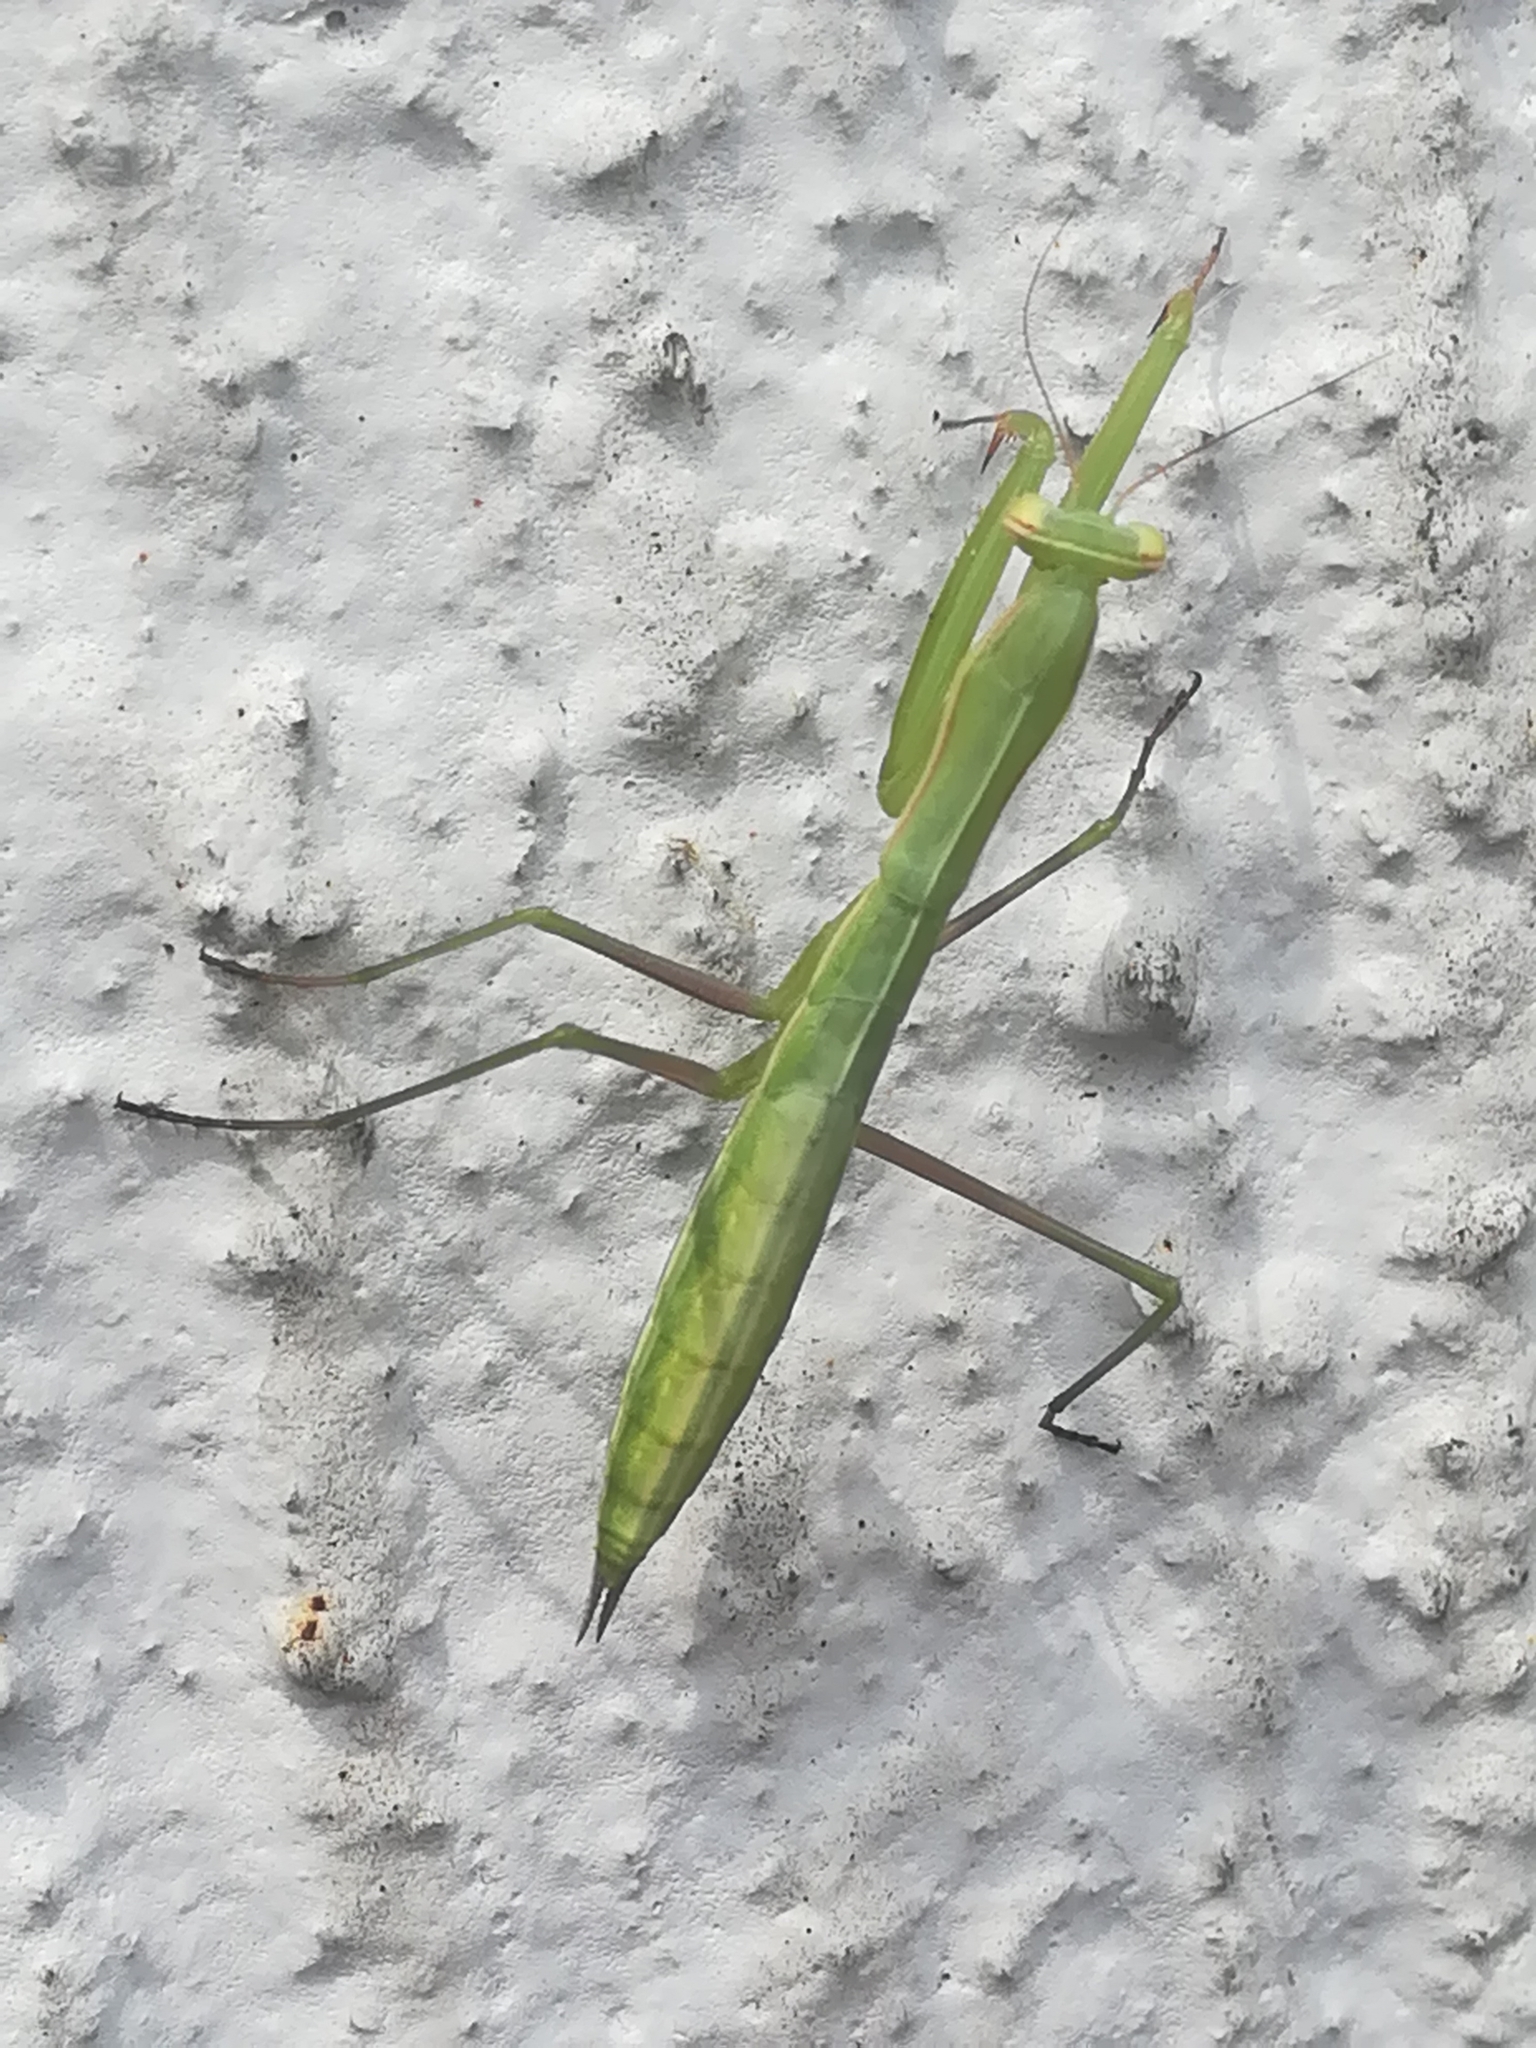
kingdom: Animalia
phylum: Arthropoda
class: Insecta
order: Mantodea
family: Mantidae
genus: Mantis
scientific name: Mantis religiosa
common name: Praying mantis
